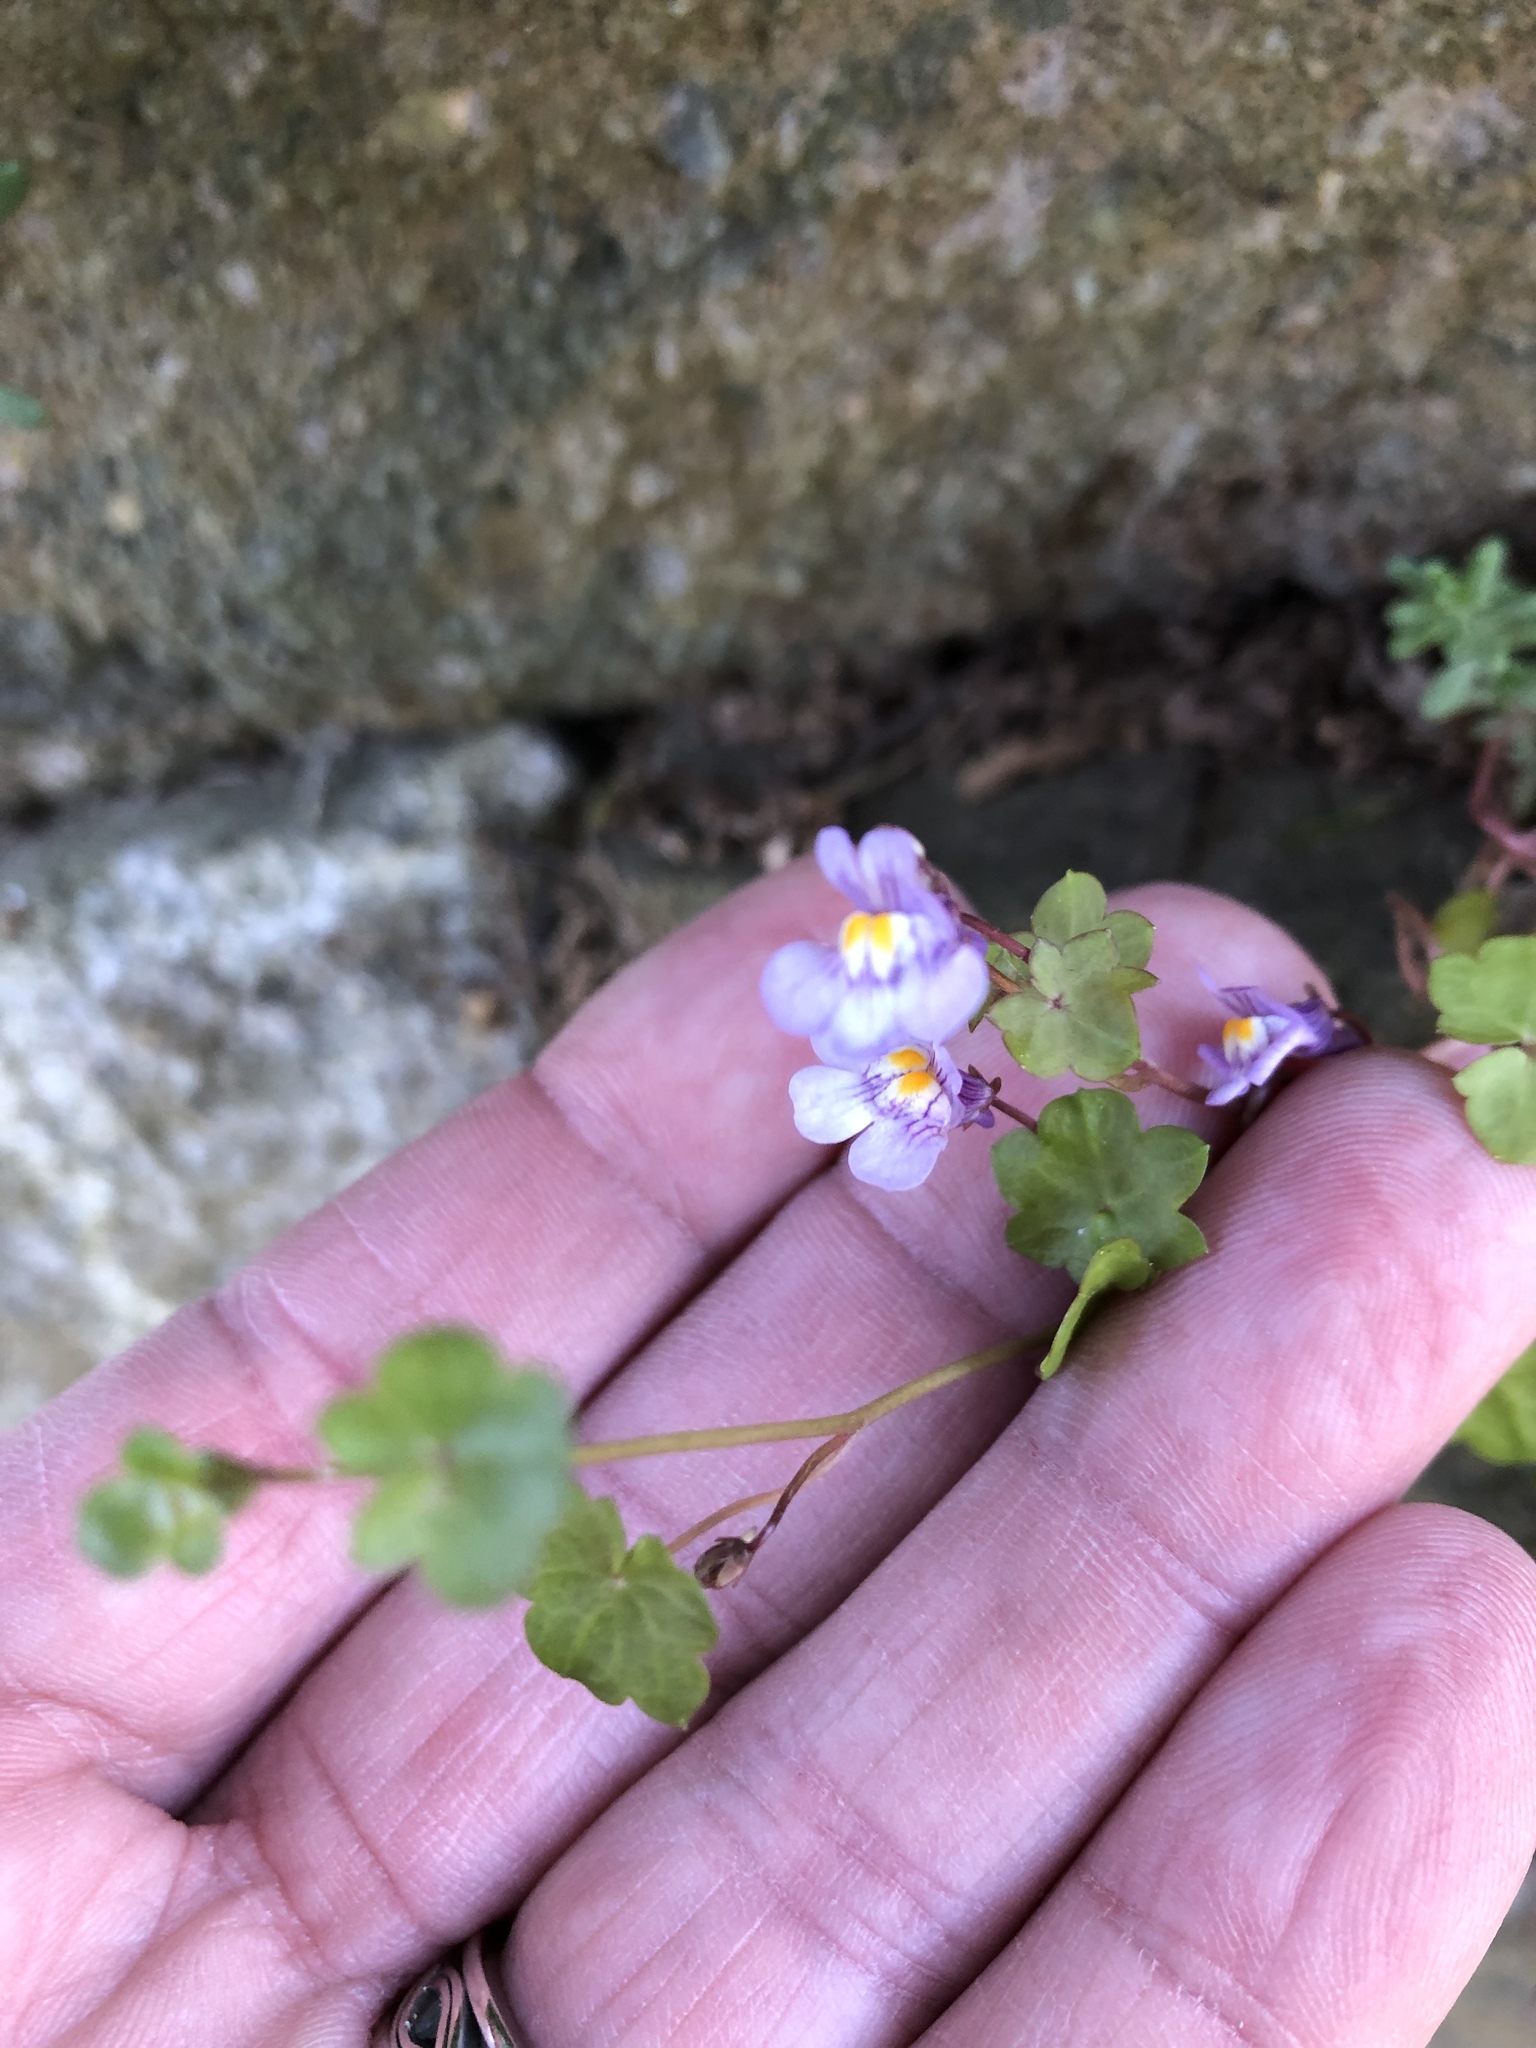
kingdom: Plantae
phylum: Tracheophyta
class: Magnoliopsida
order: Lamiales
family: Plantaginaceae
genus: Cymbalaria
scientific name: Cymbalaria muralis
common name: Ivy-leaved toadflax
